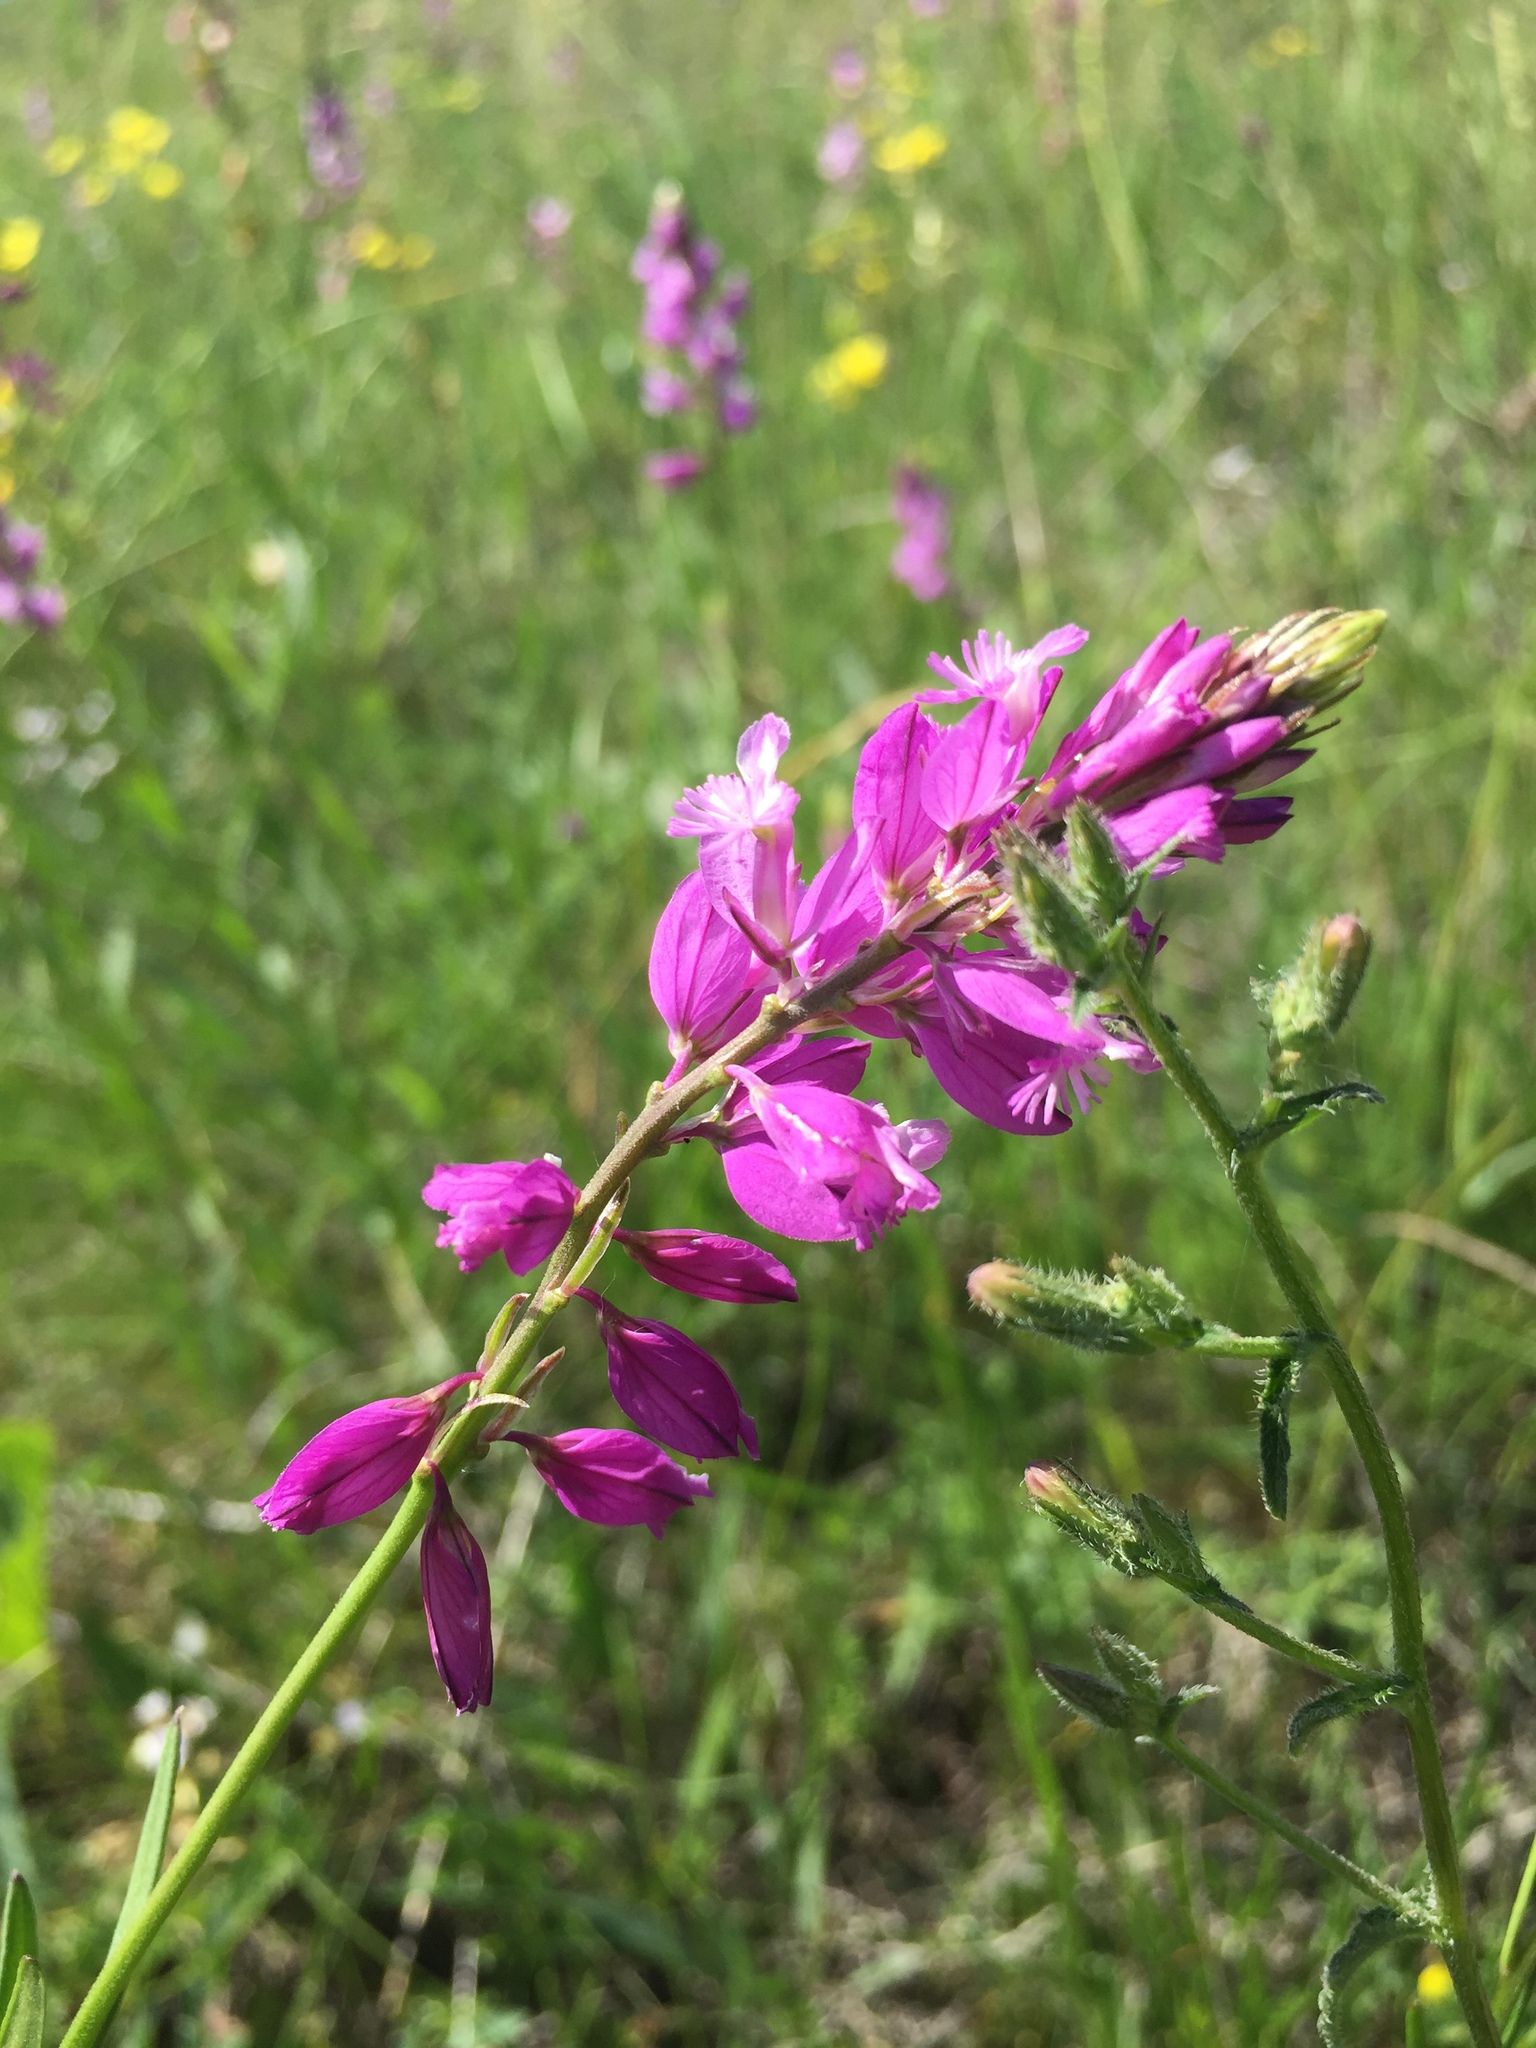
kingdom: Plantae
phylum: Tracheophyta
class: Magnoliopsida
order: Fabales
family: Polygalaceae
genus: Polygala
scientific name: Polygala nicaeensis
